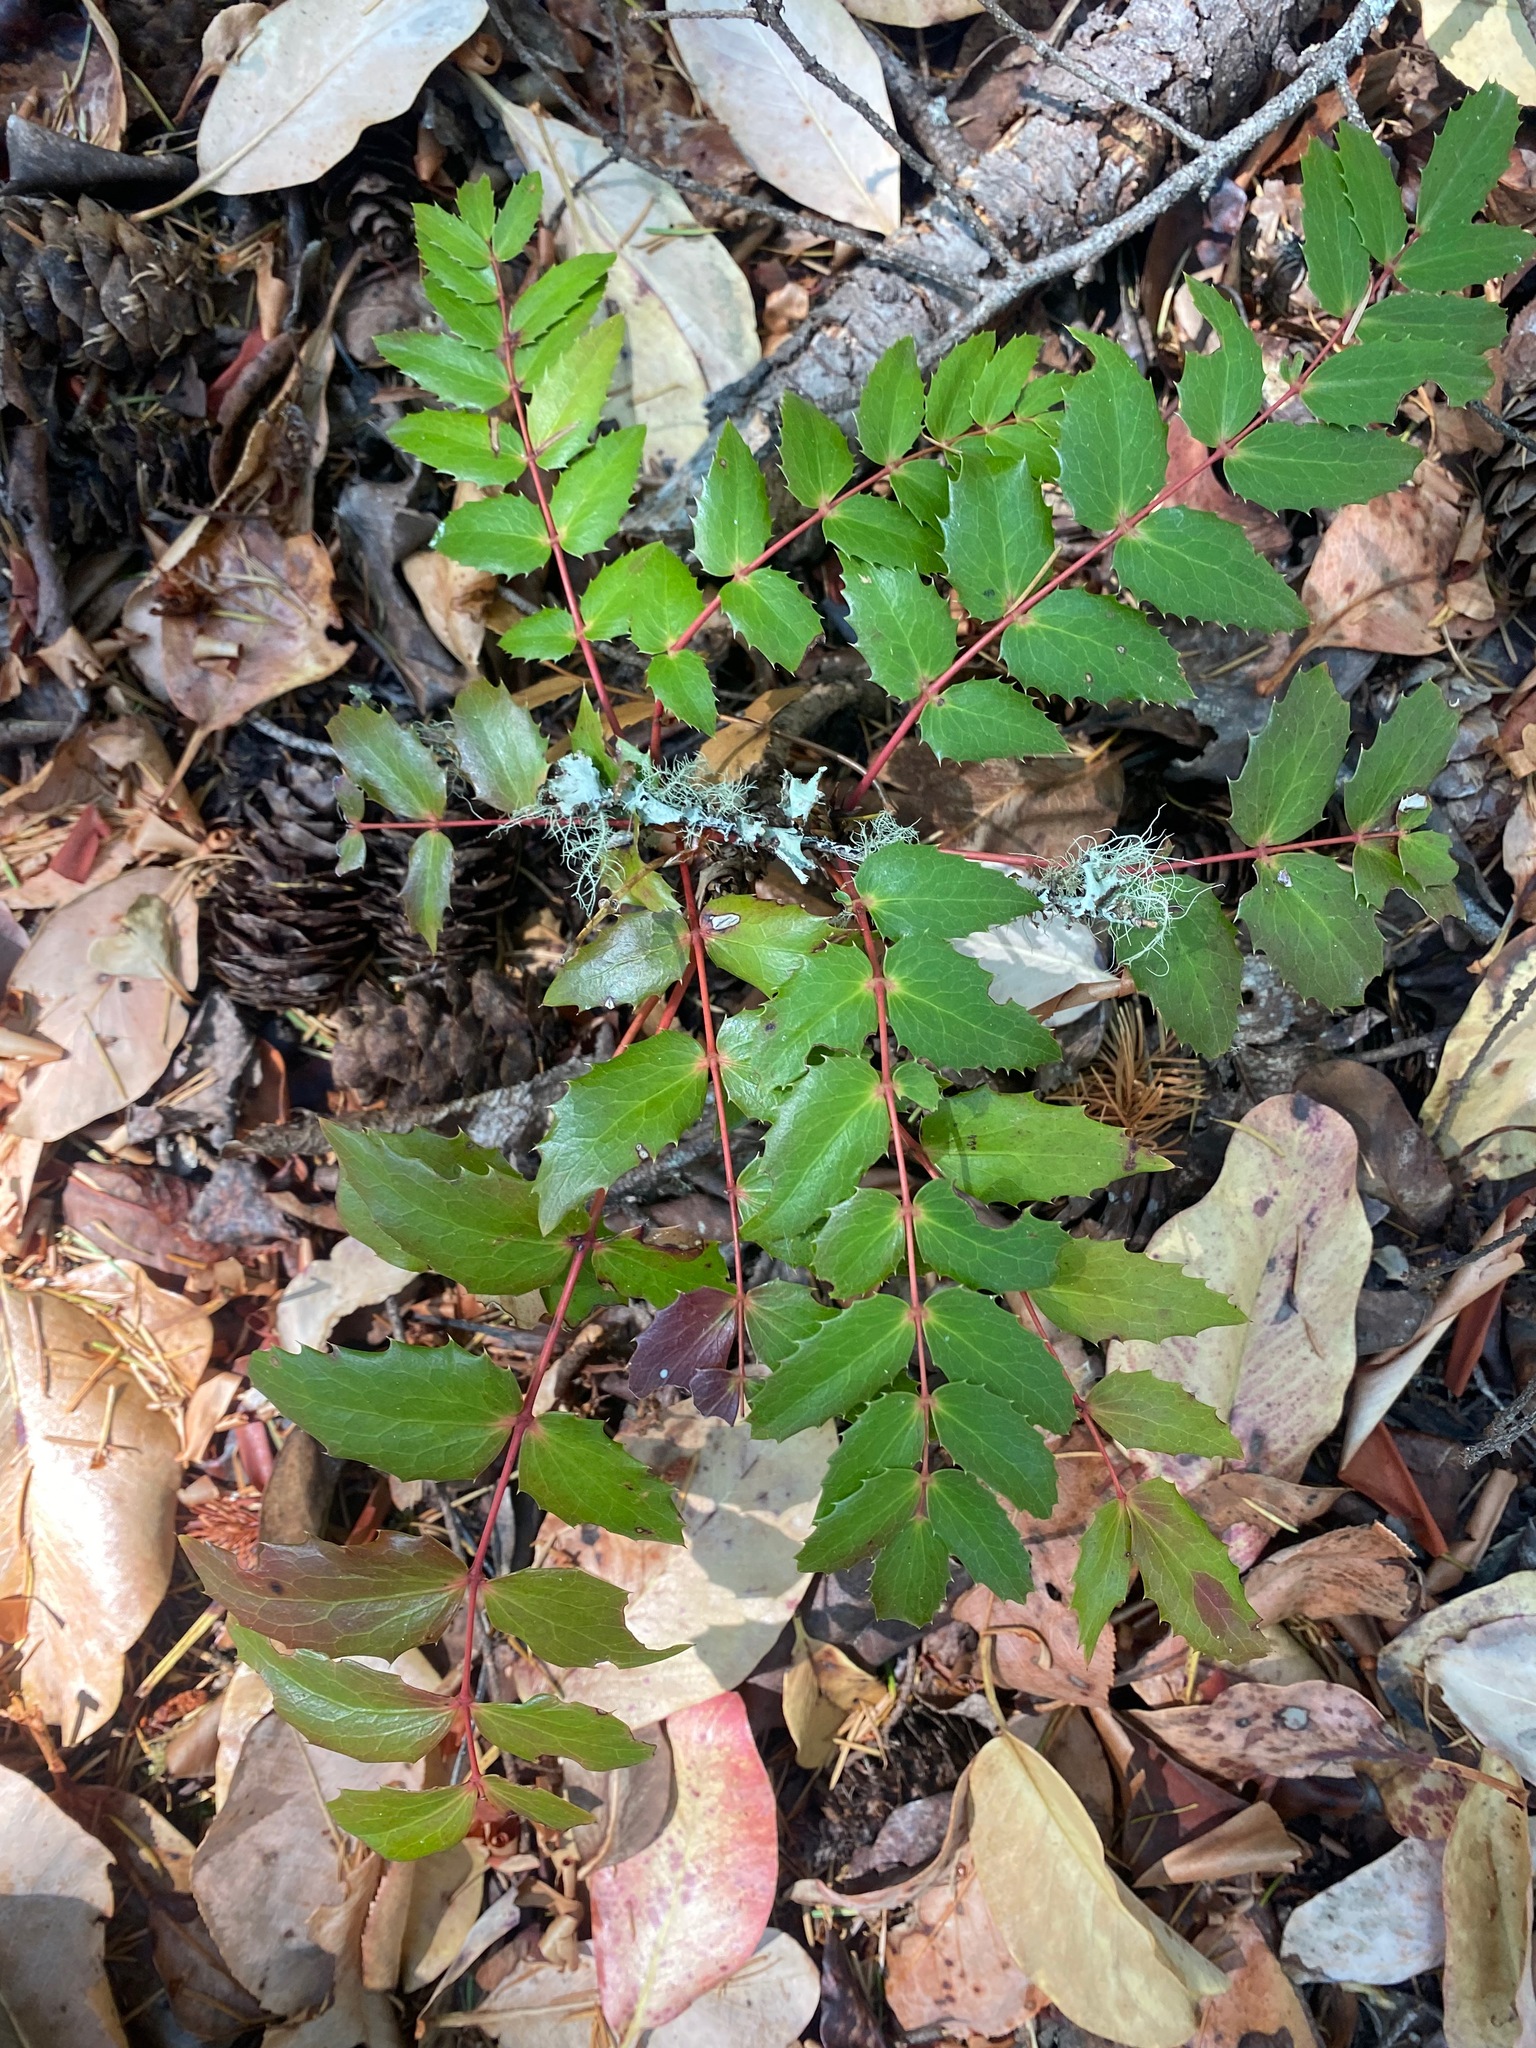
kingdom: Plantae
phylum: Tracheophyta
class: Magnoliopsida
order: Ranunculales
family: Berberidaceae
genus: Mahonia
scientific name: Mahonia nervosa
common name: Cascade oregon-grape
